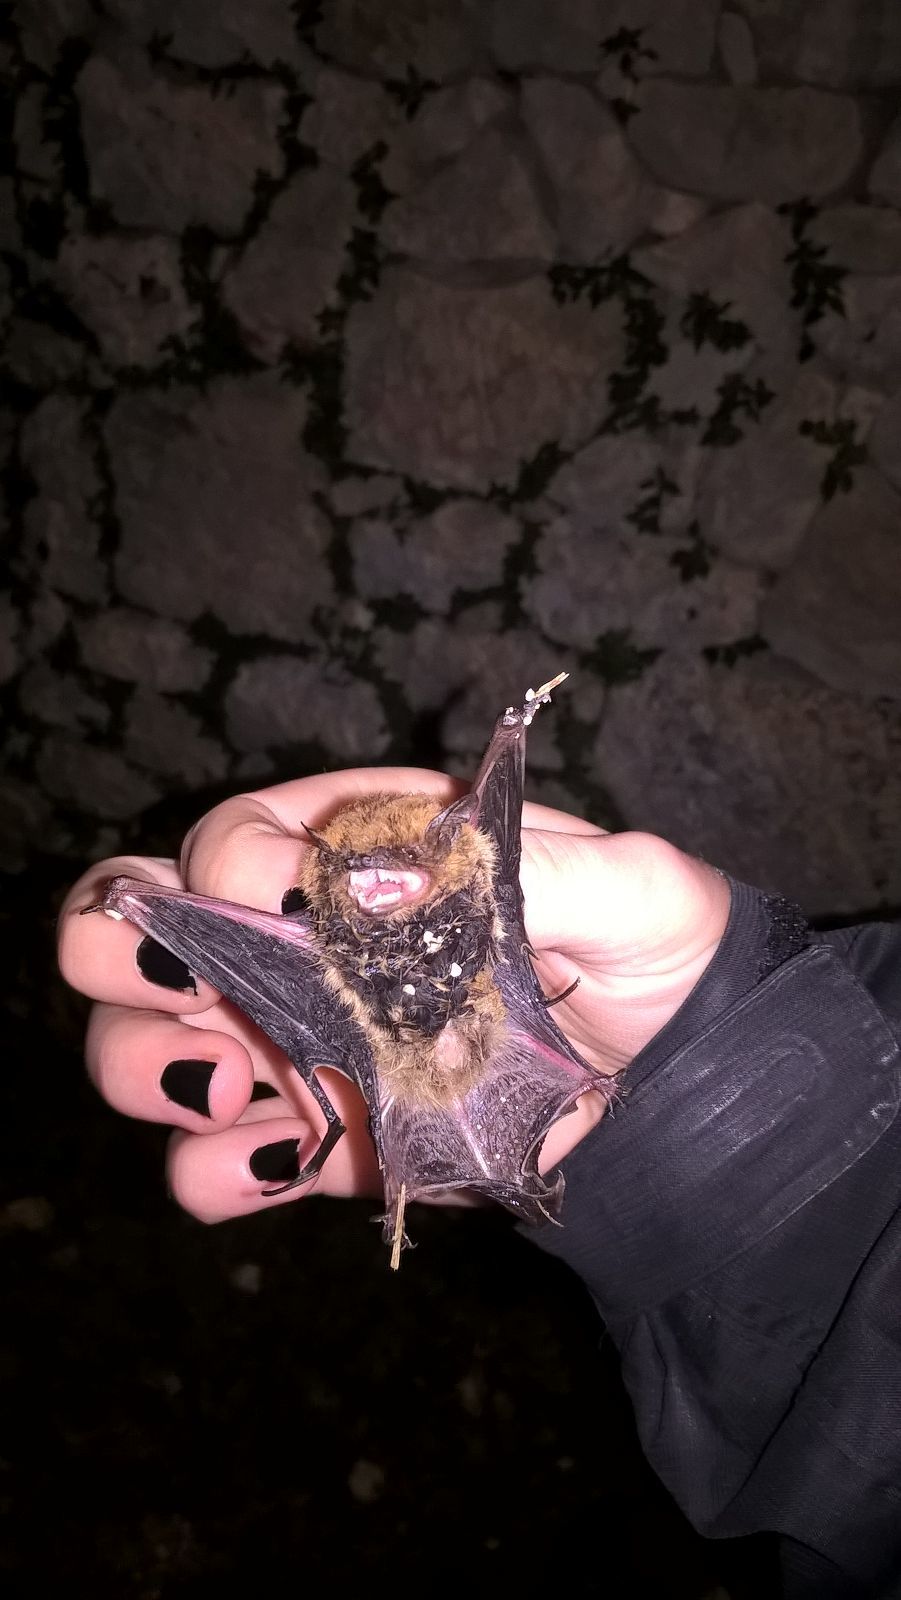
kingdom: Animalia
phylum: Chordata
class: Mammalia
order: Chiroptera
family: Vespertilionidae
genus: Pipistrellus
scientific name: Pipistrellus kuhlii
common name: Kuhl's pipistrelle
